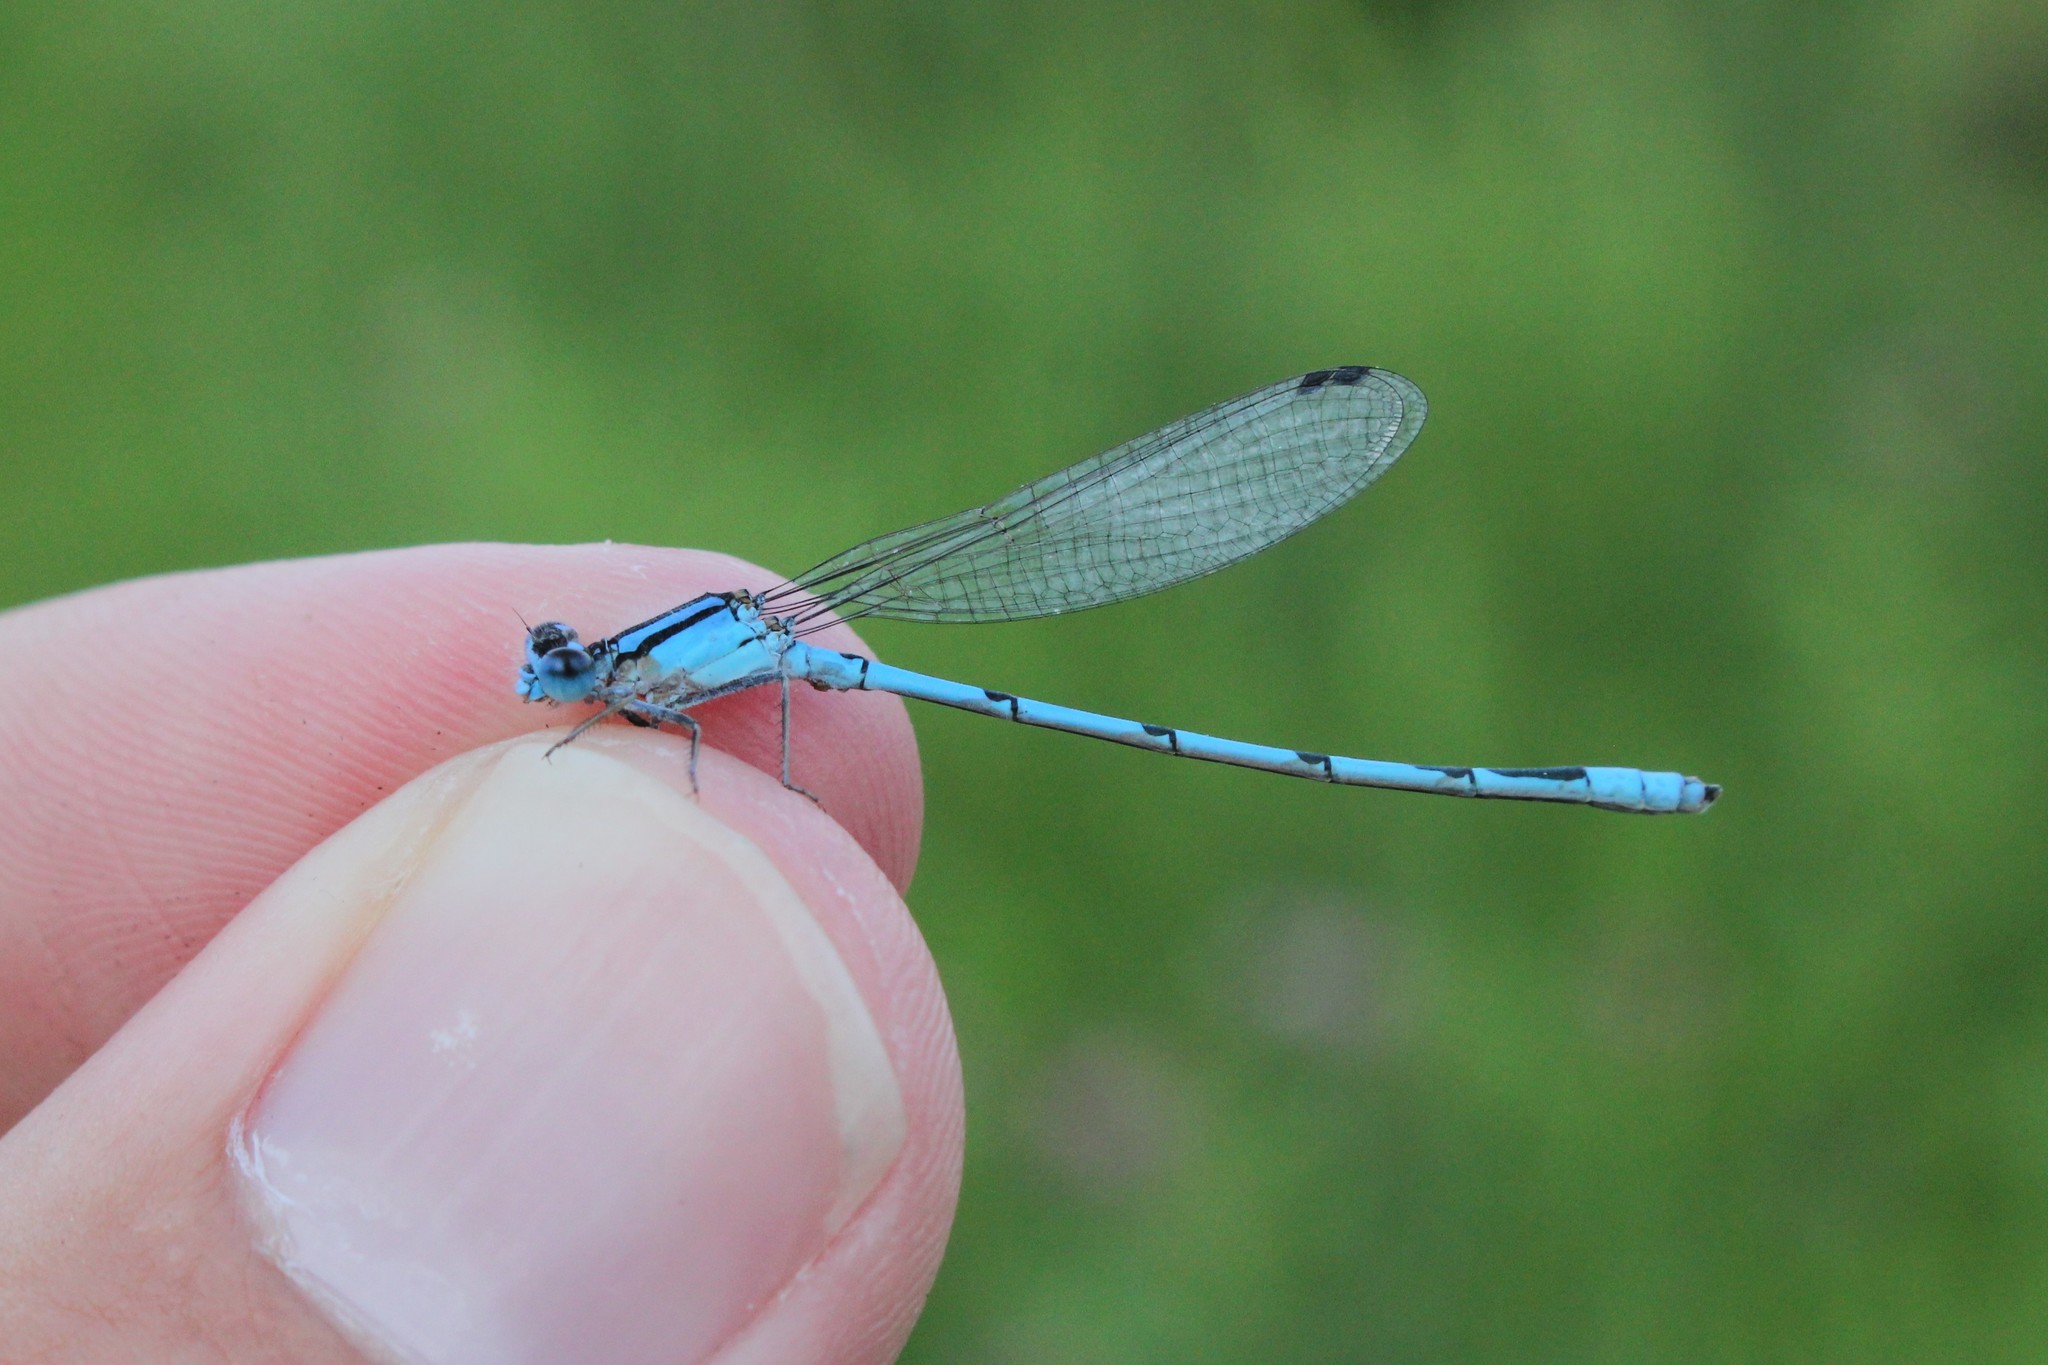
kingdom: Animalia
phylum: Arthropoda
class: Insecta
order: Odonata
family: Coenagrionidae
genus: Enallagma
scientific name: Enallagma civile
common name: Damselfly
